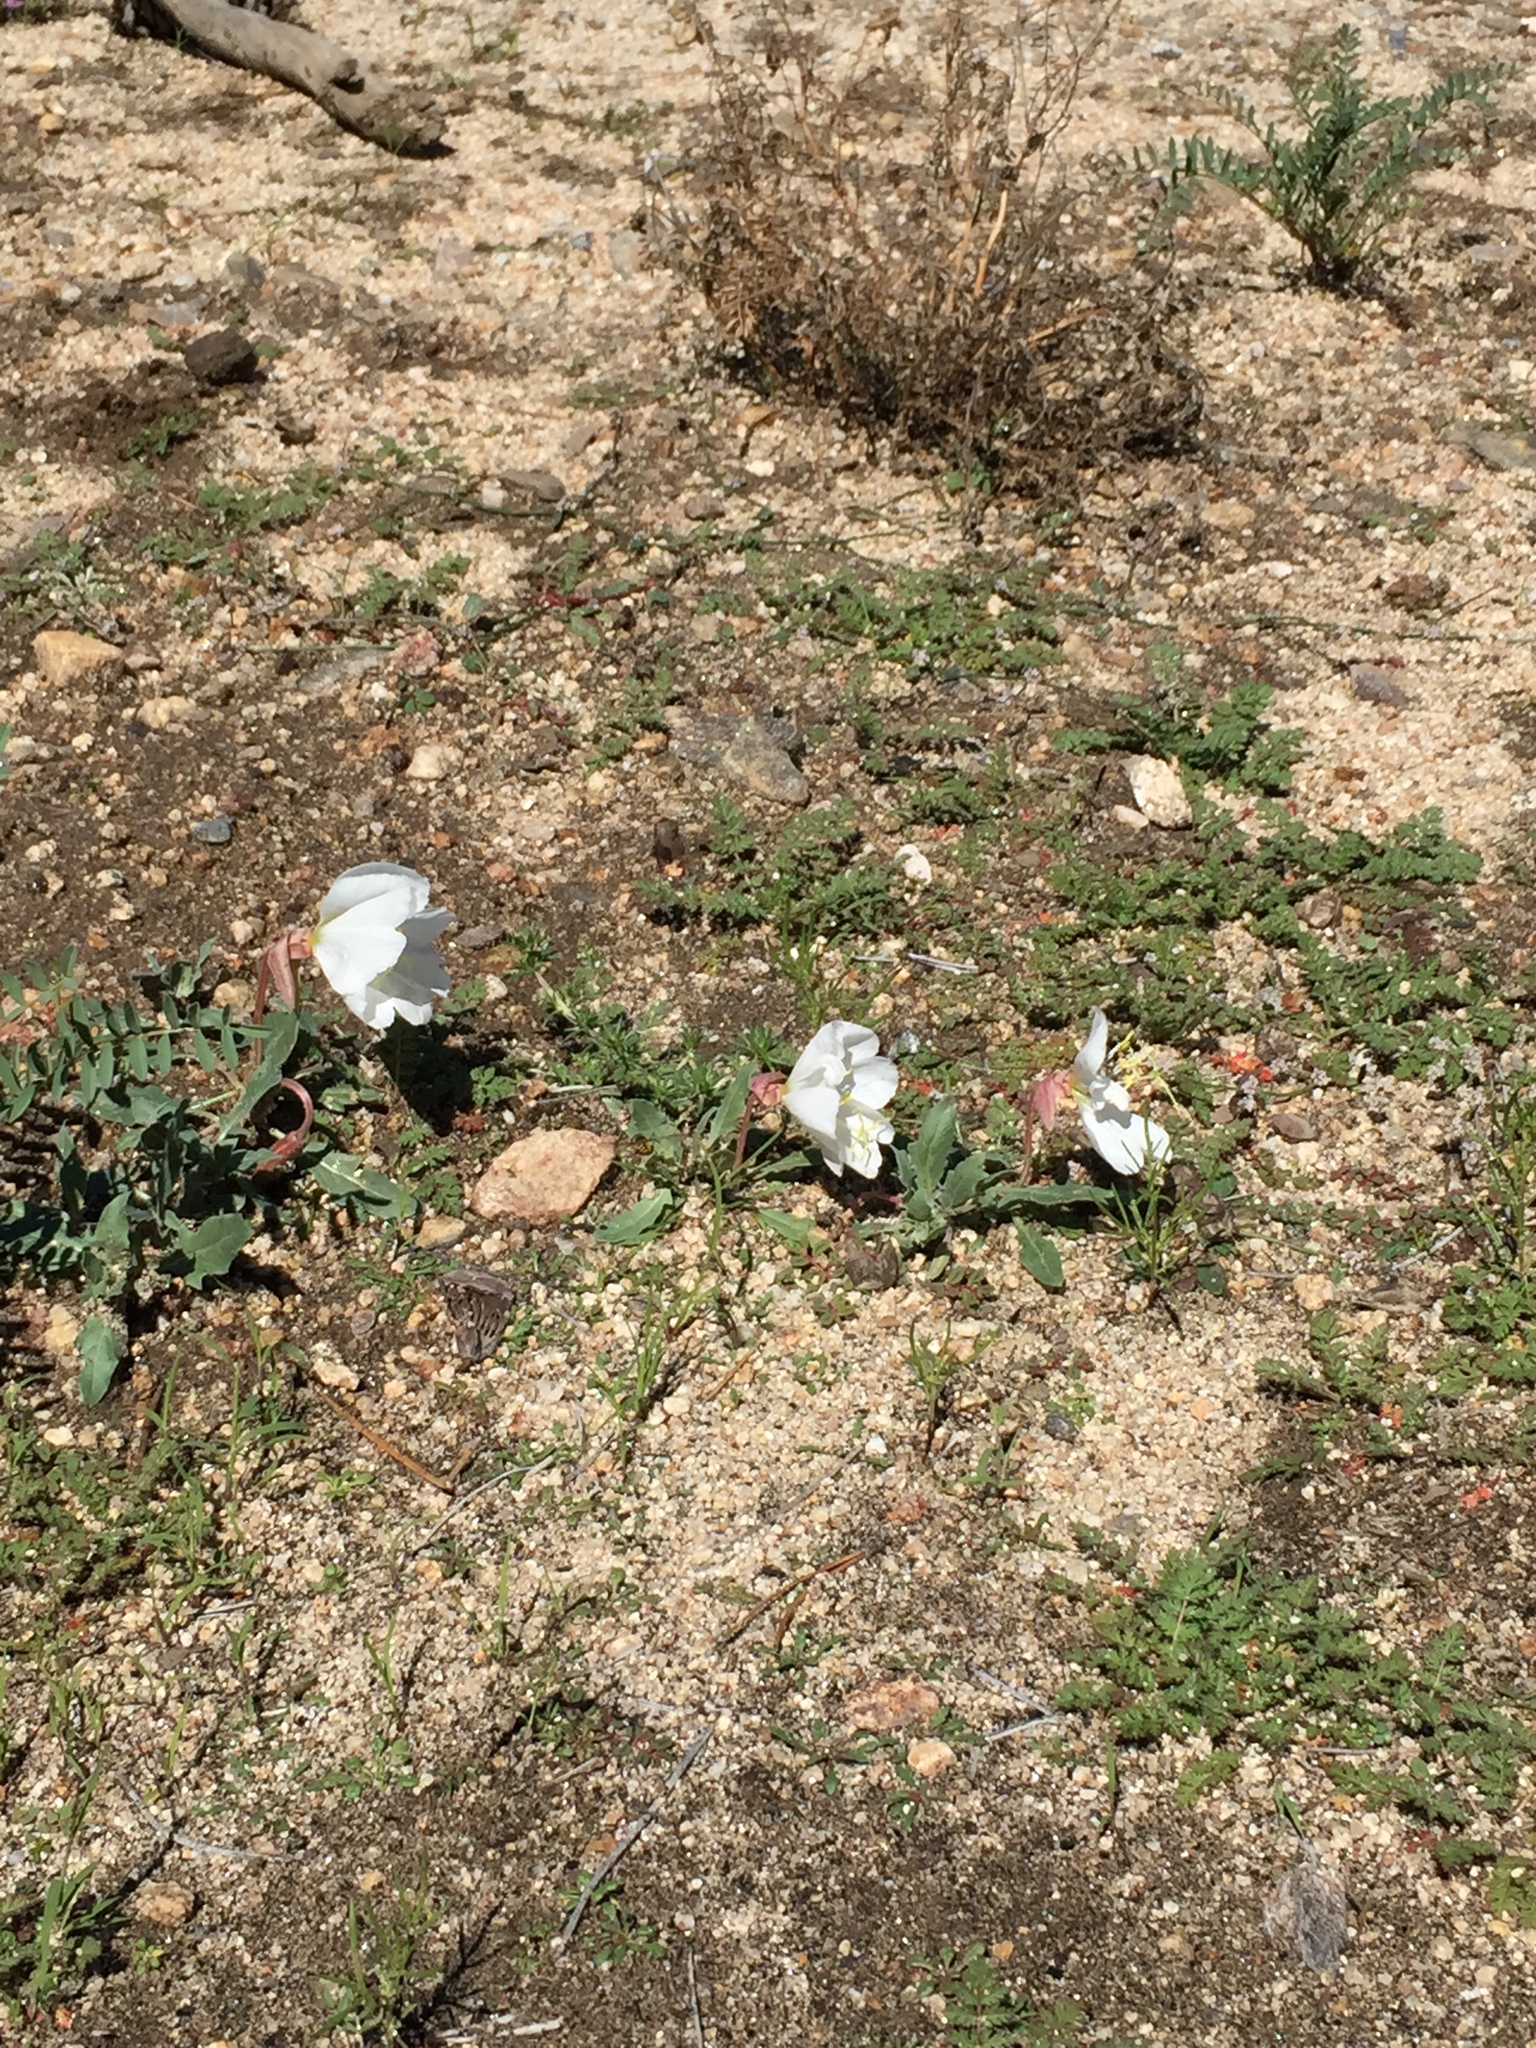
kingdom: Plantae
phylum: Tracheophyta
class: Magnoliopsida
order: Myrtales
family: Onagraceae
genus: Oenothera
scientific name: Oenothera californica
